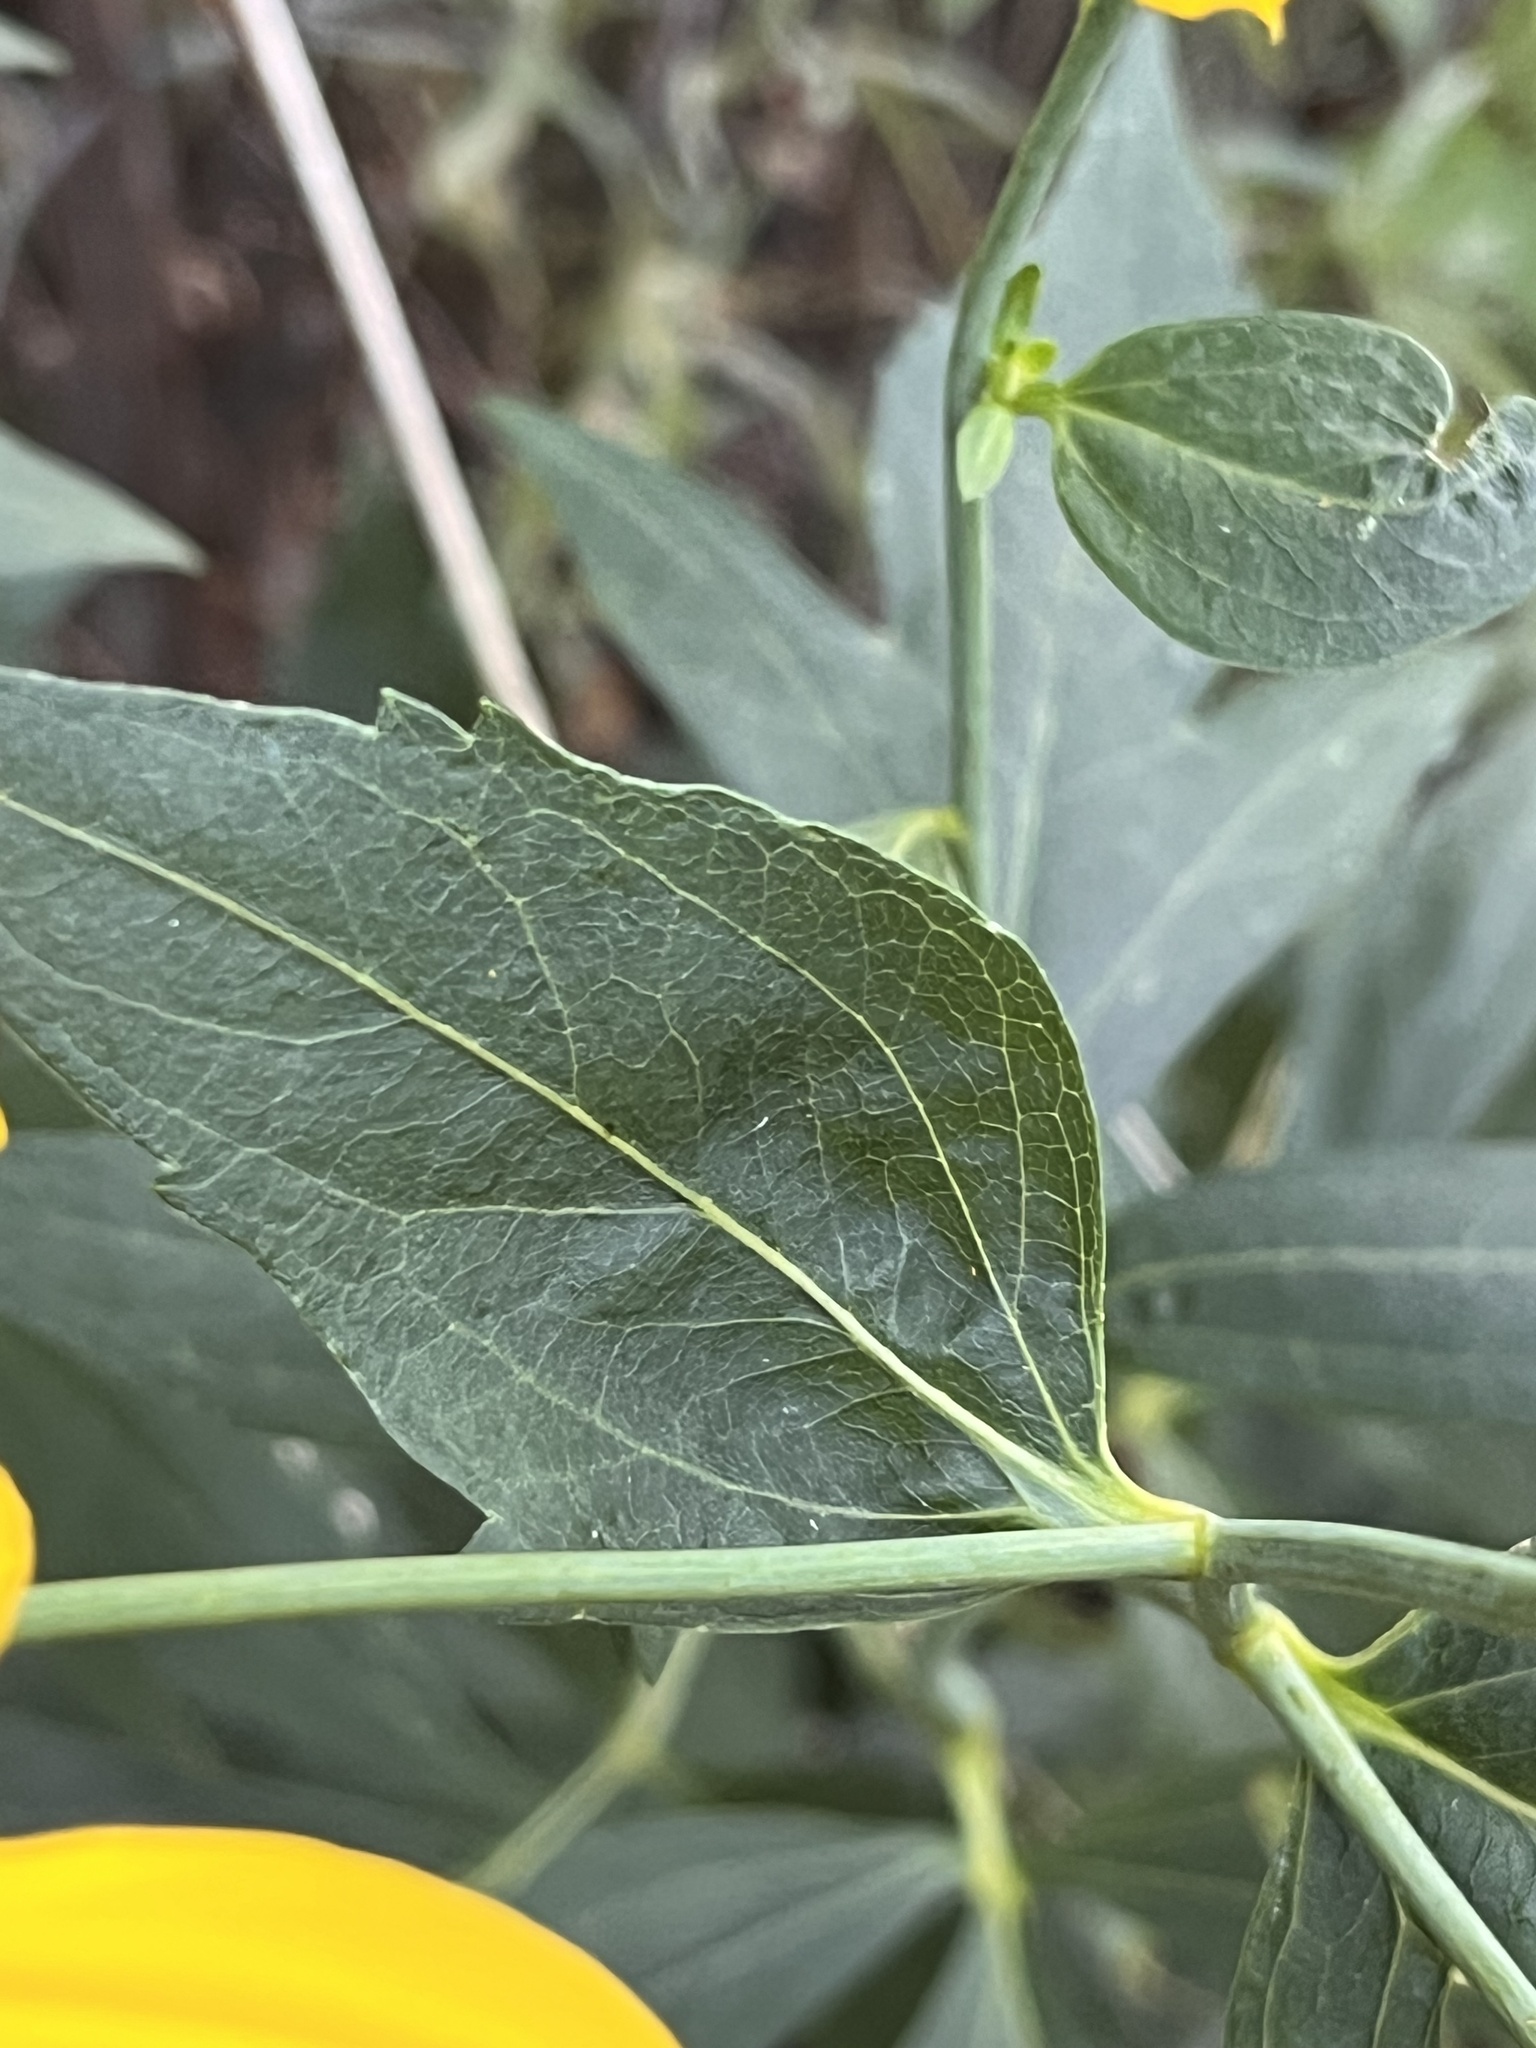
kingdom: Plantae
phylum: Tracheophyta
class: Magnoliopsida
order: Asterales
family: Asteraceae
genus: Rudbeckia
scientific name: Rudbeckia laciniata
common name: Coneflower
